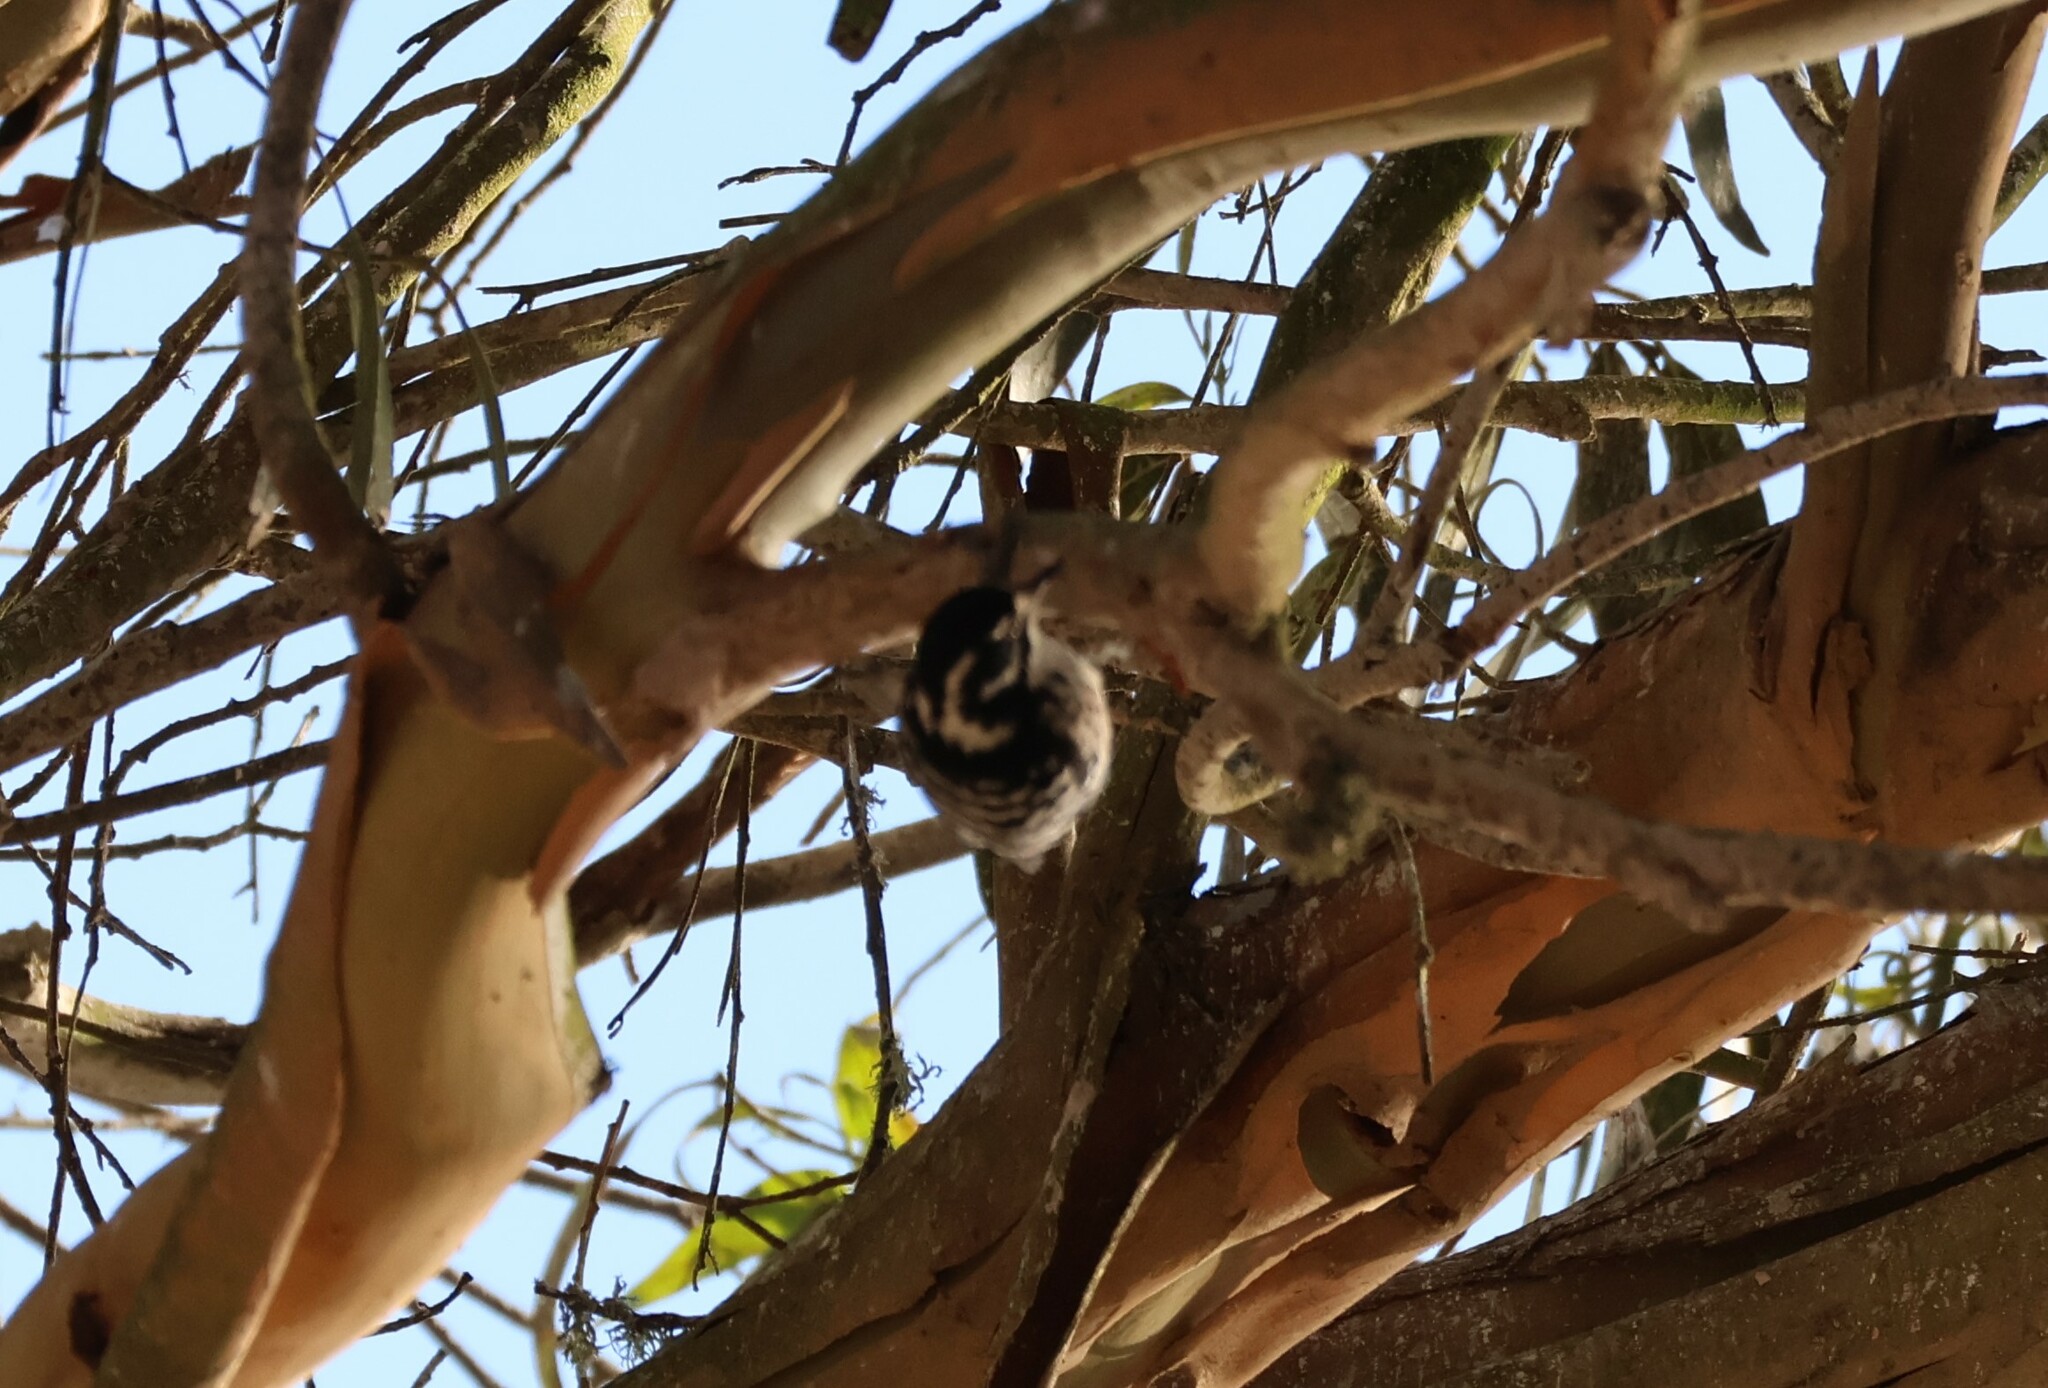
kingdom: Animalia
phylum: Chordata
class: Aves
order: Piciformes
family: Picidae
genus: Dryobates
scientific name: Dryobates nuttallii
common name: Nuttall's woodpecker
